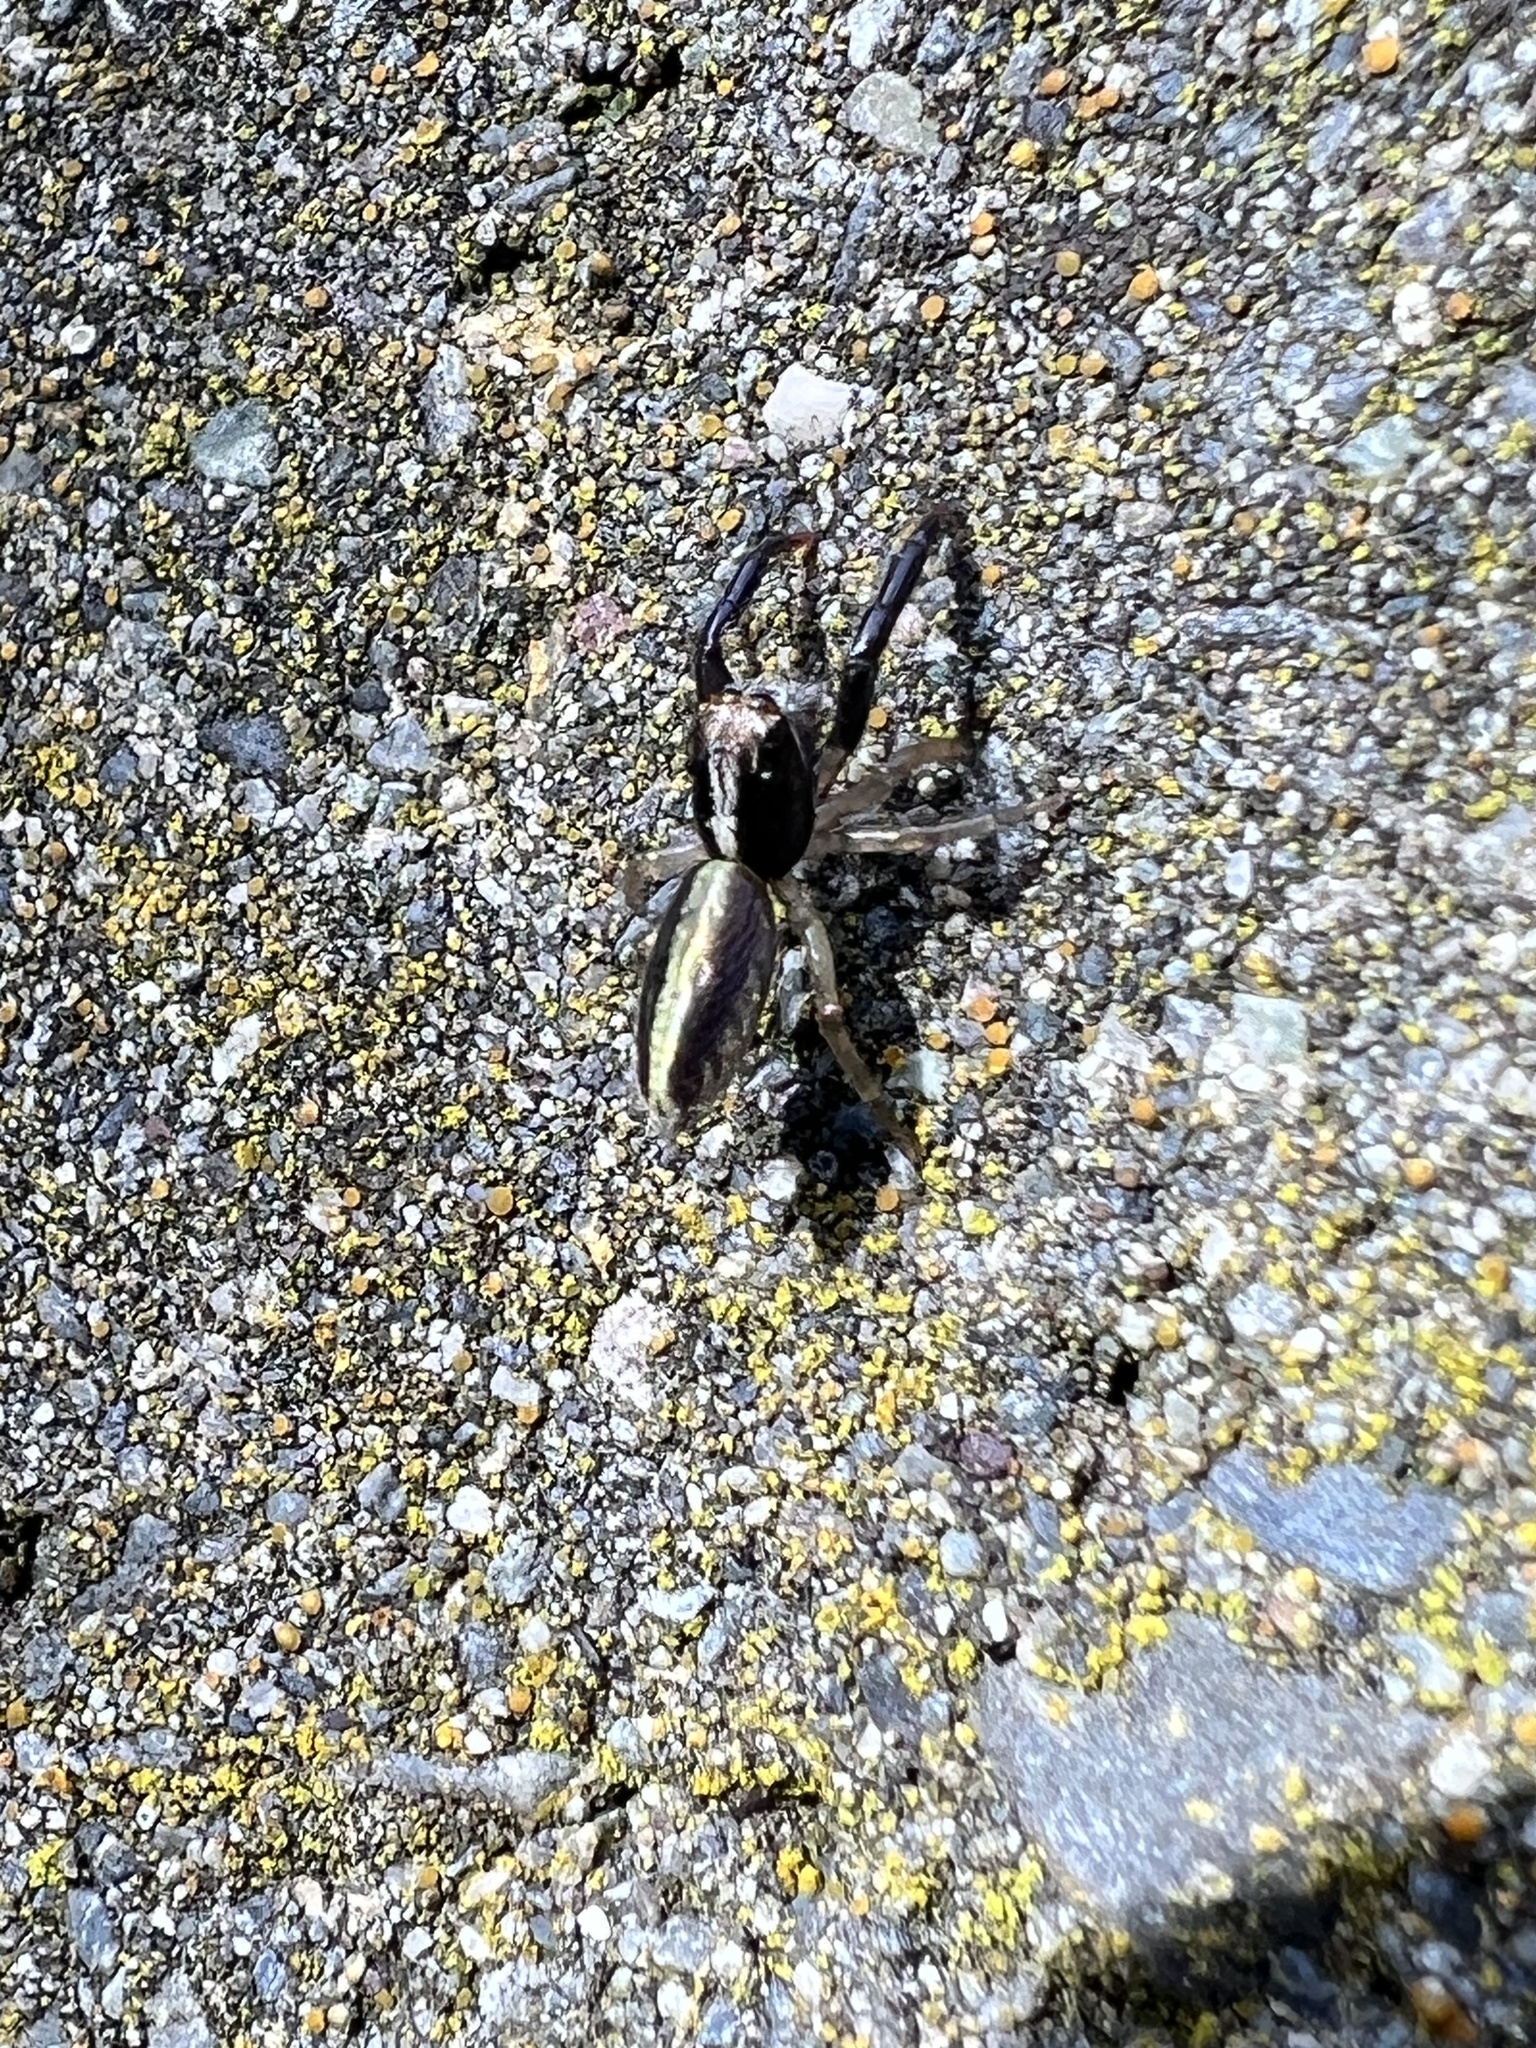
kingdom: Animalia
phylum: Arthropoda
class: Arachnida
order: Araneae
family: Salticidae
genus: Trite
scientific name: Trite planiceps
